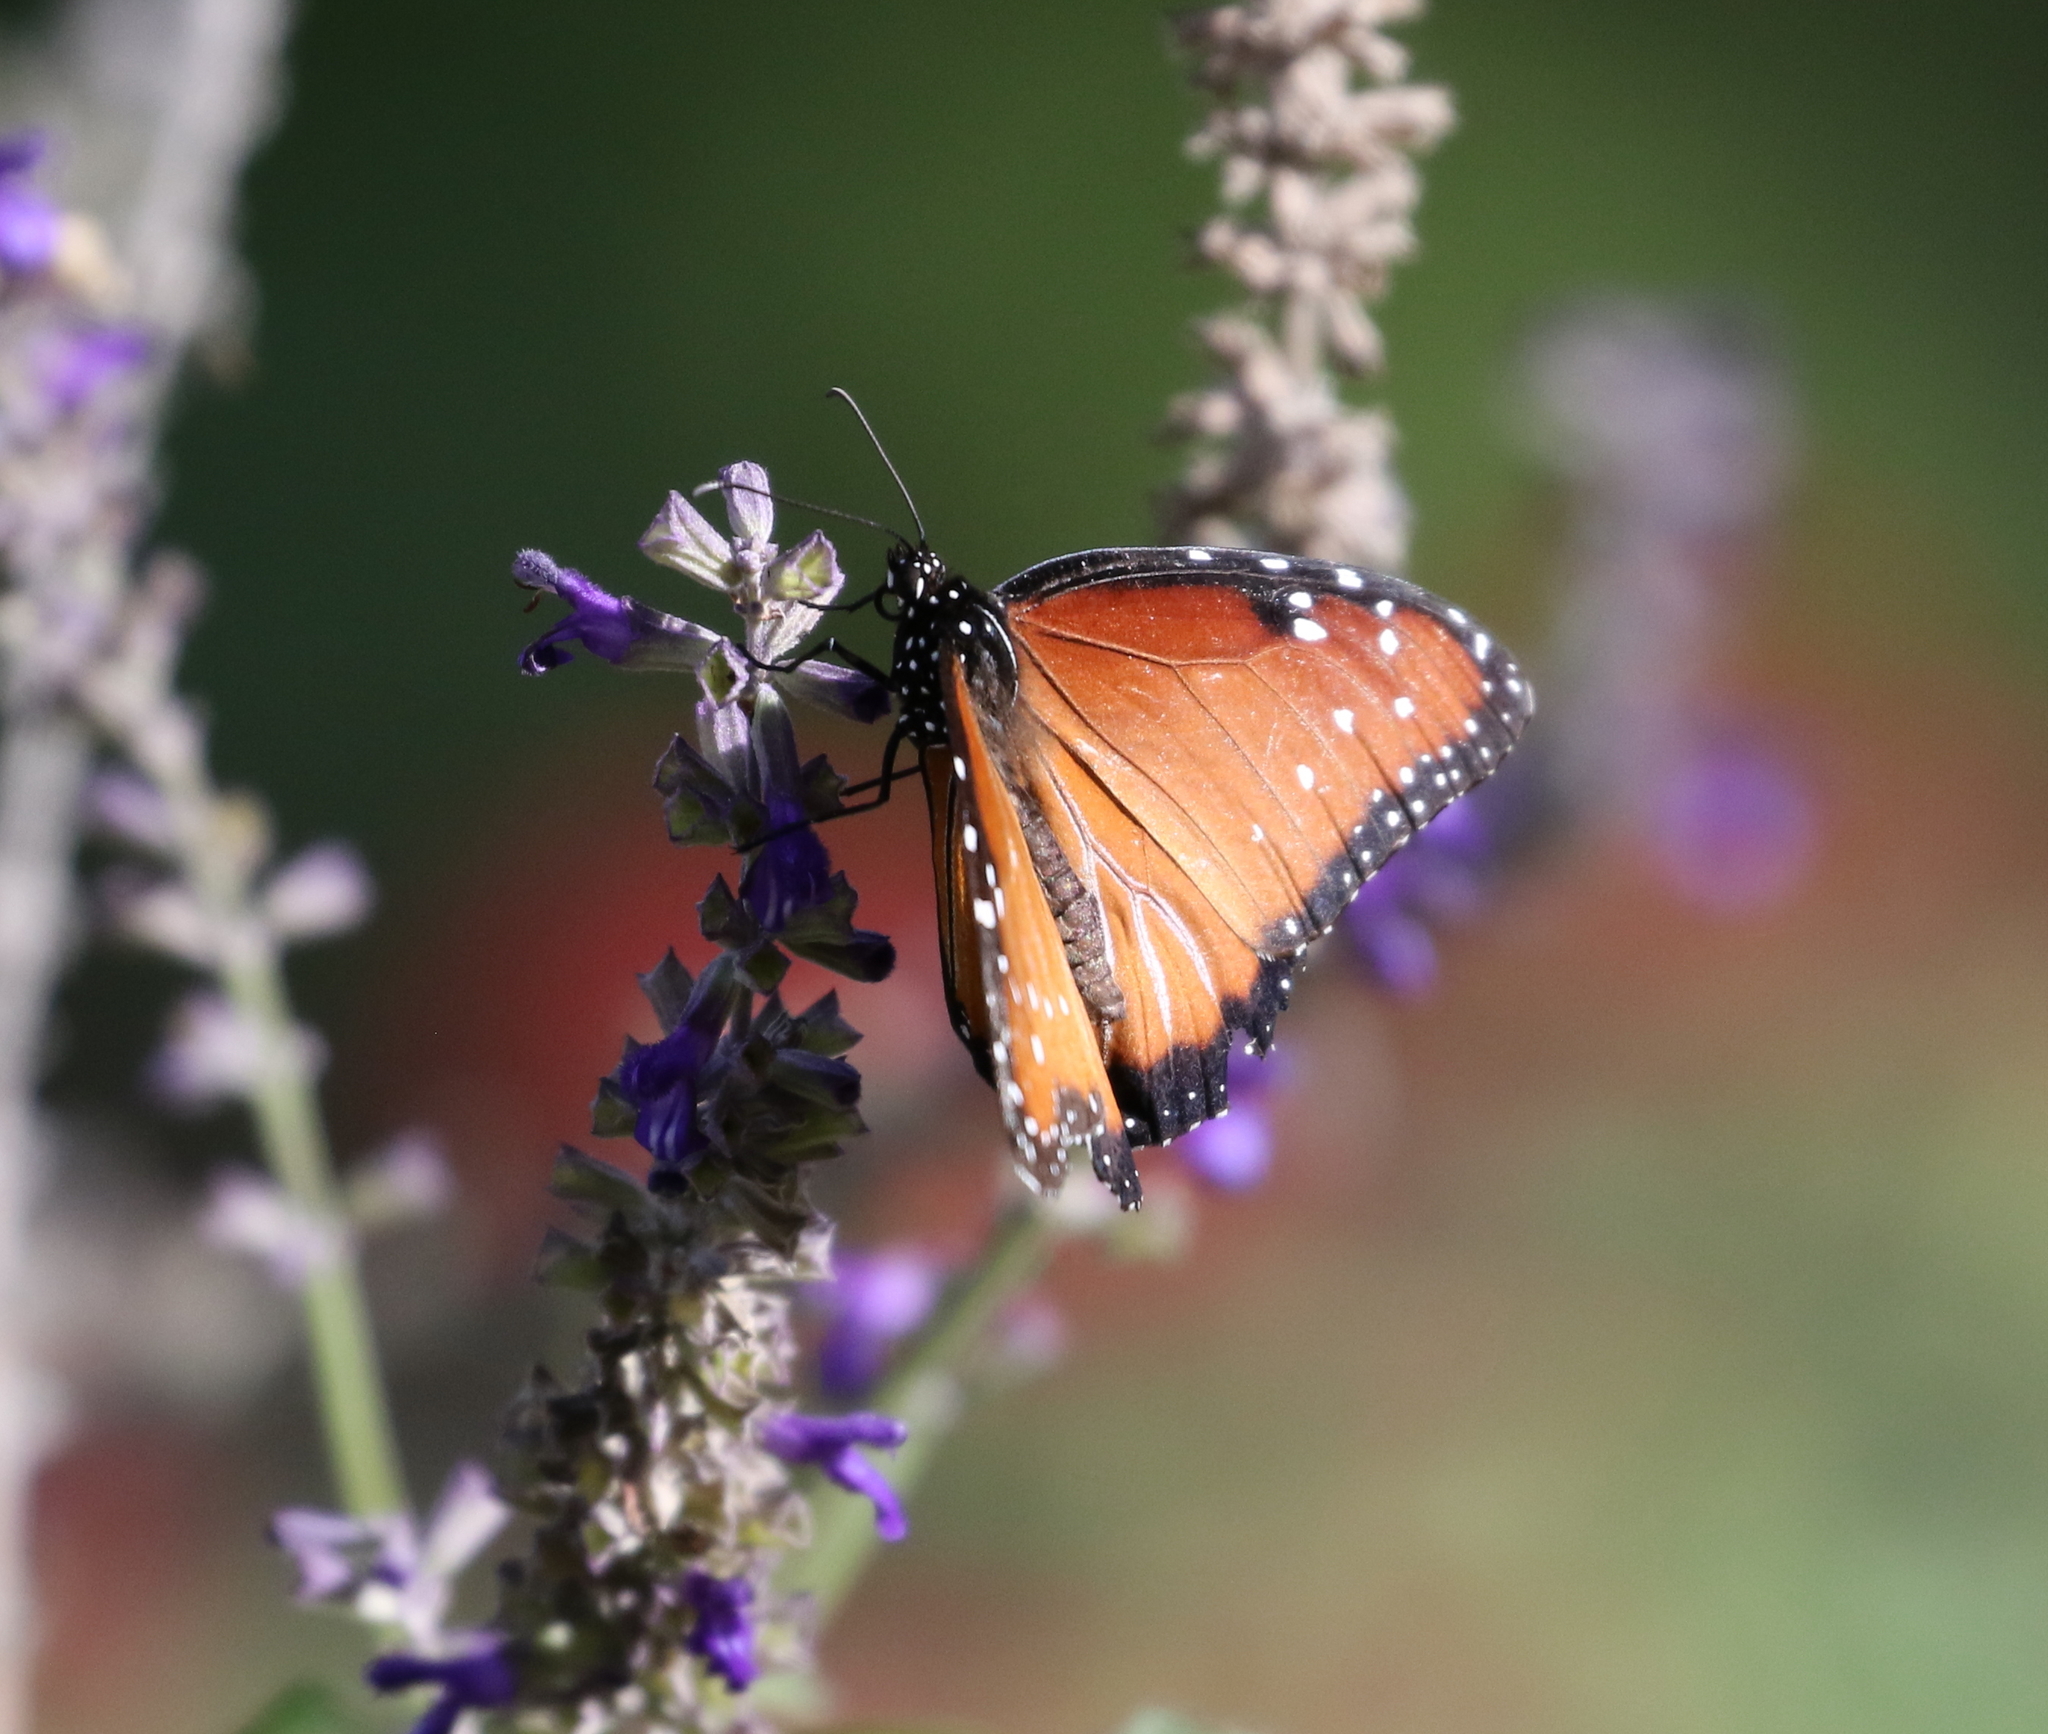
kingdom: Animalia
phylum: Arthropoda
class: Insecta
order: Lepidoptera
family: Nymphalidae
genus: Danaus
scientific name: Danaus gilippus
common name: Queen
